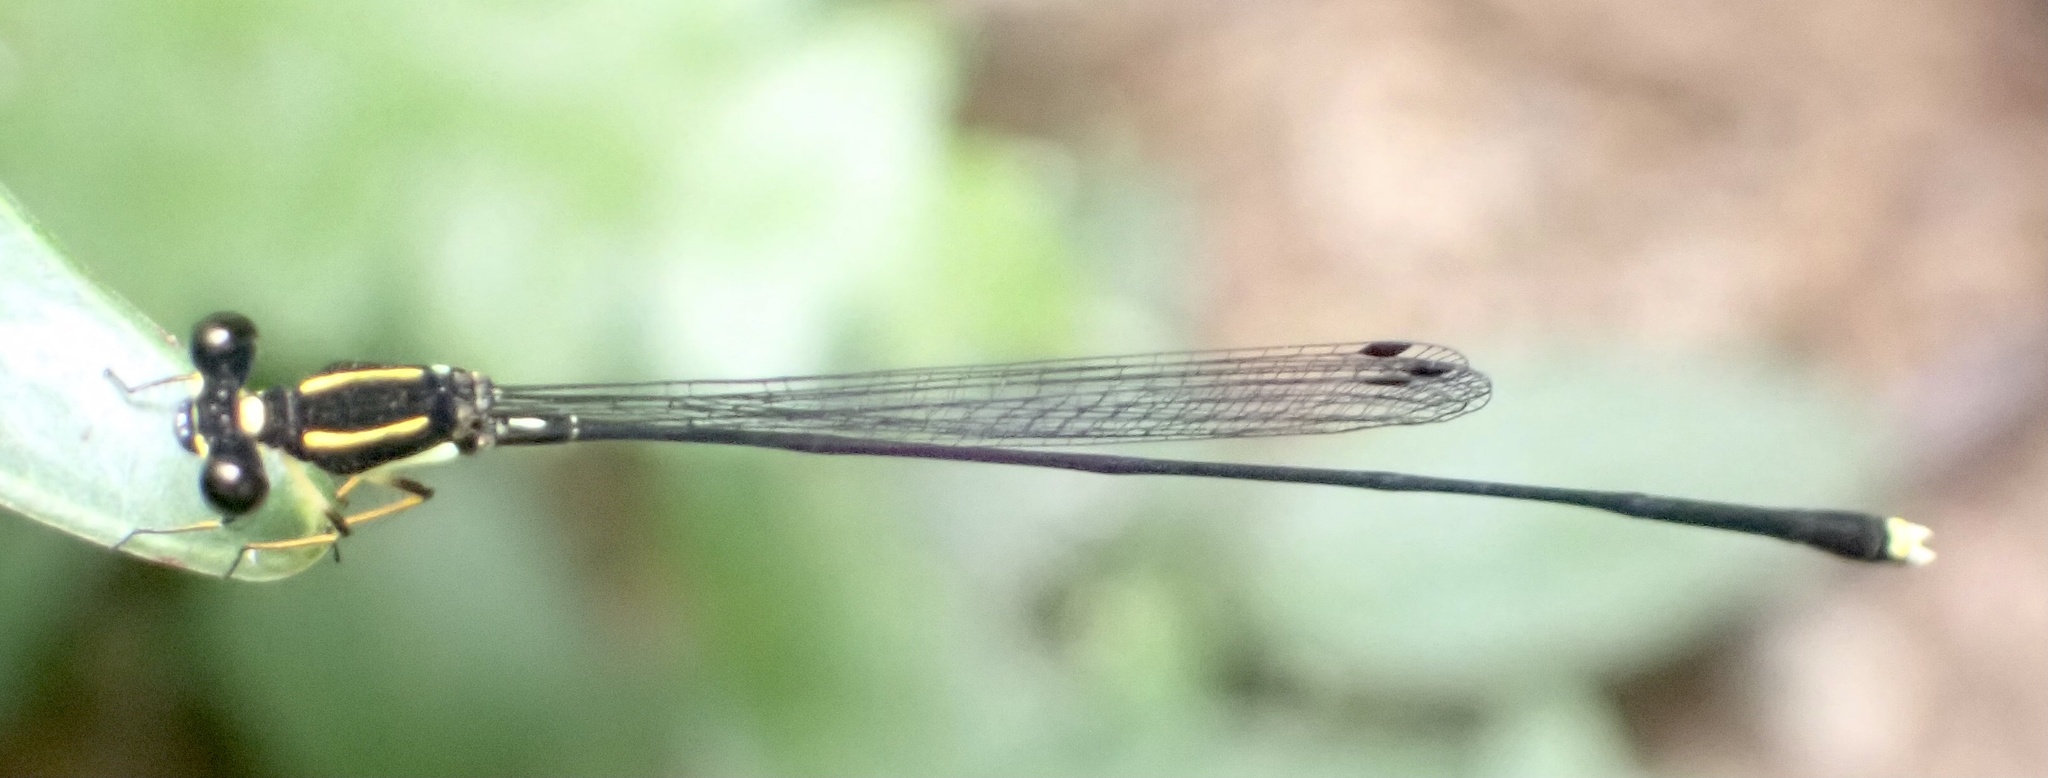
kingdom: Animalia
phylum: Arthropoda
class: Insecta
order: Odonata
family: Platycnemididae
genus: Allocnemis
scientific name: Allocnemis elongata
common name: Orange yellowwing
